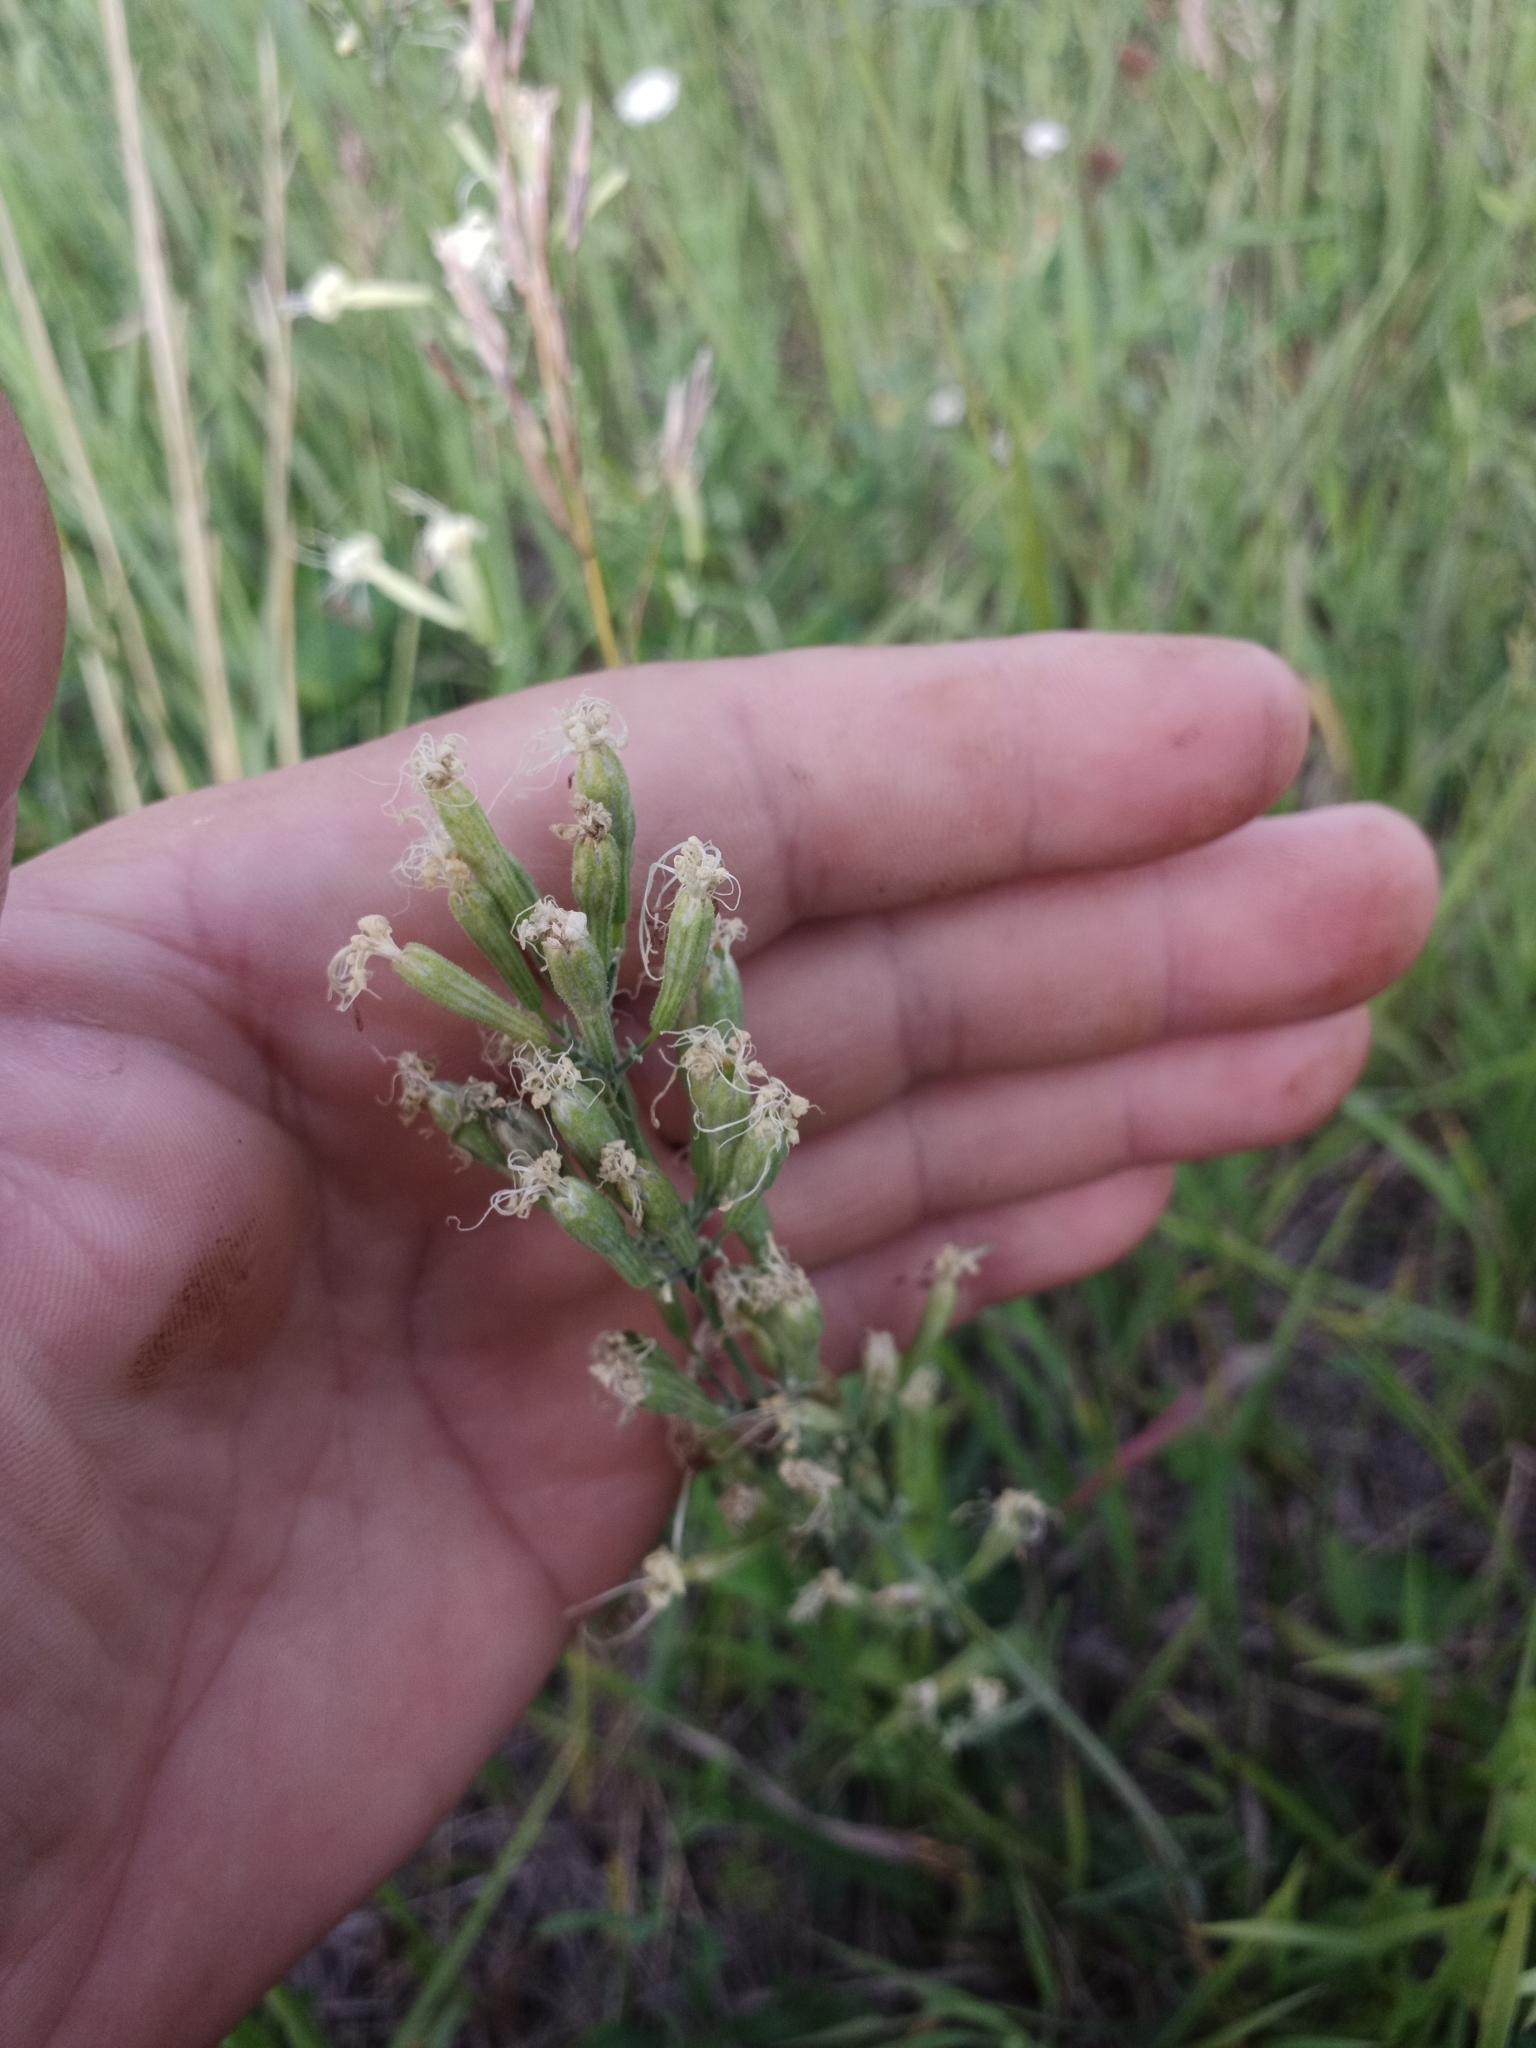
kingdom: Plantae
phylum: Tracheophyta
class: Magnoliopsida
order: Caryophyllales
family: Caryophyllaceae
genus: Silene
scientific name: Silene viscosa
